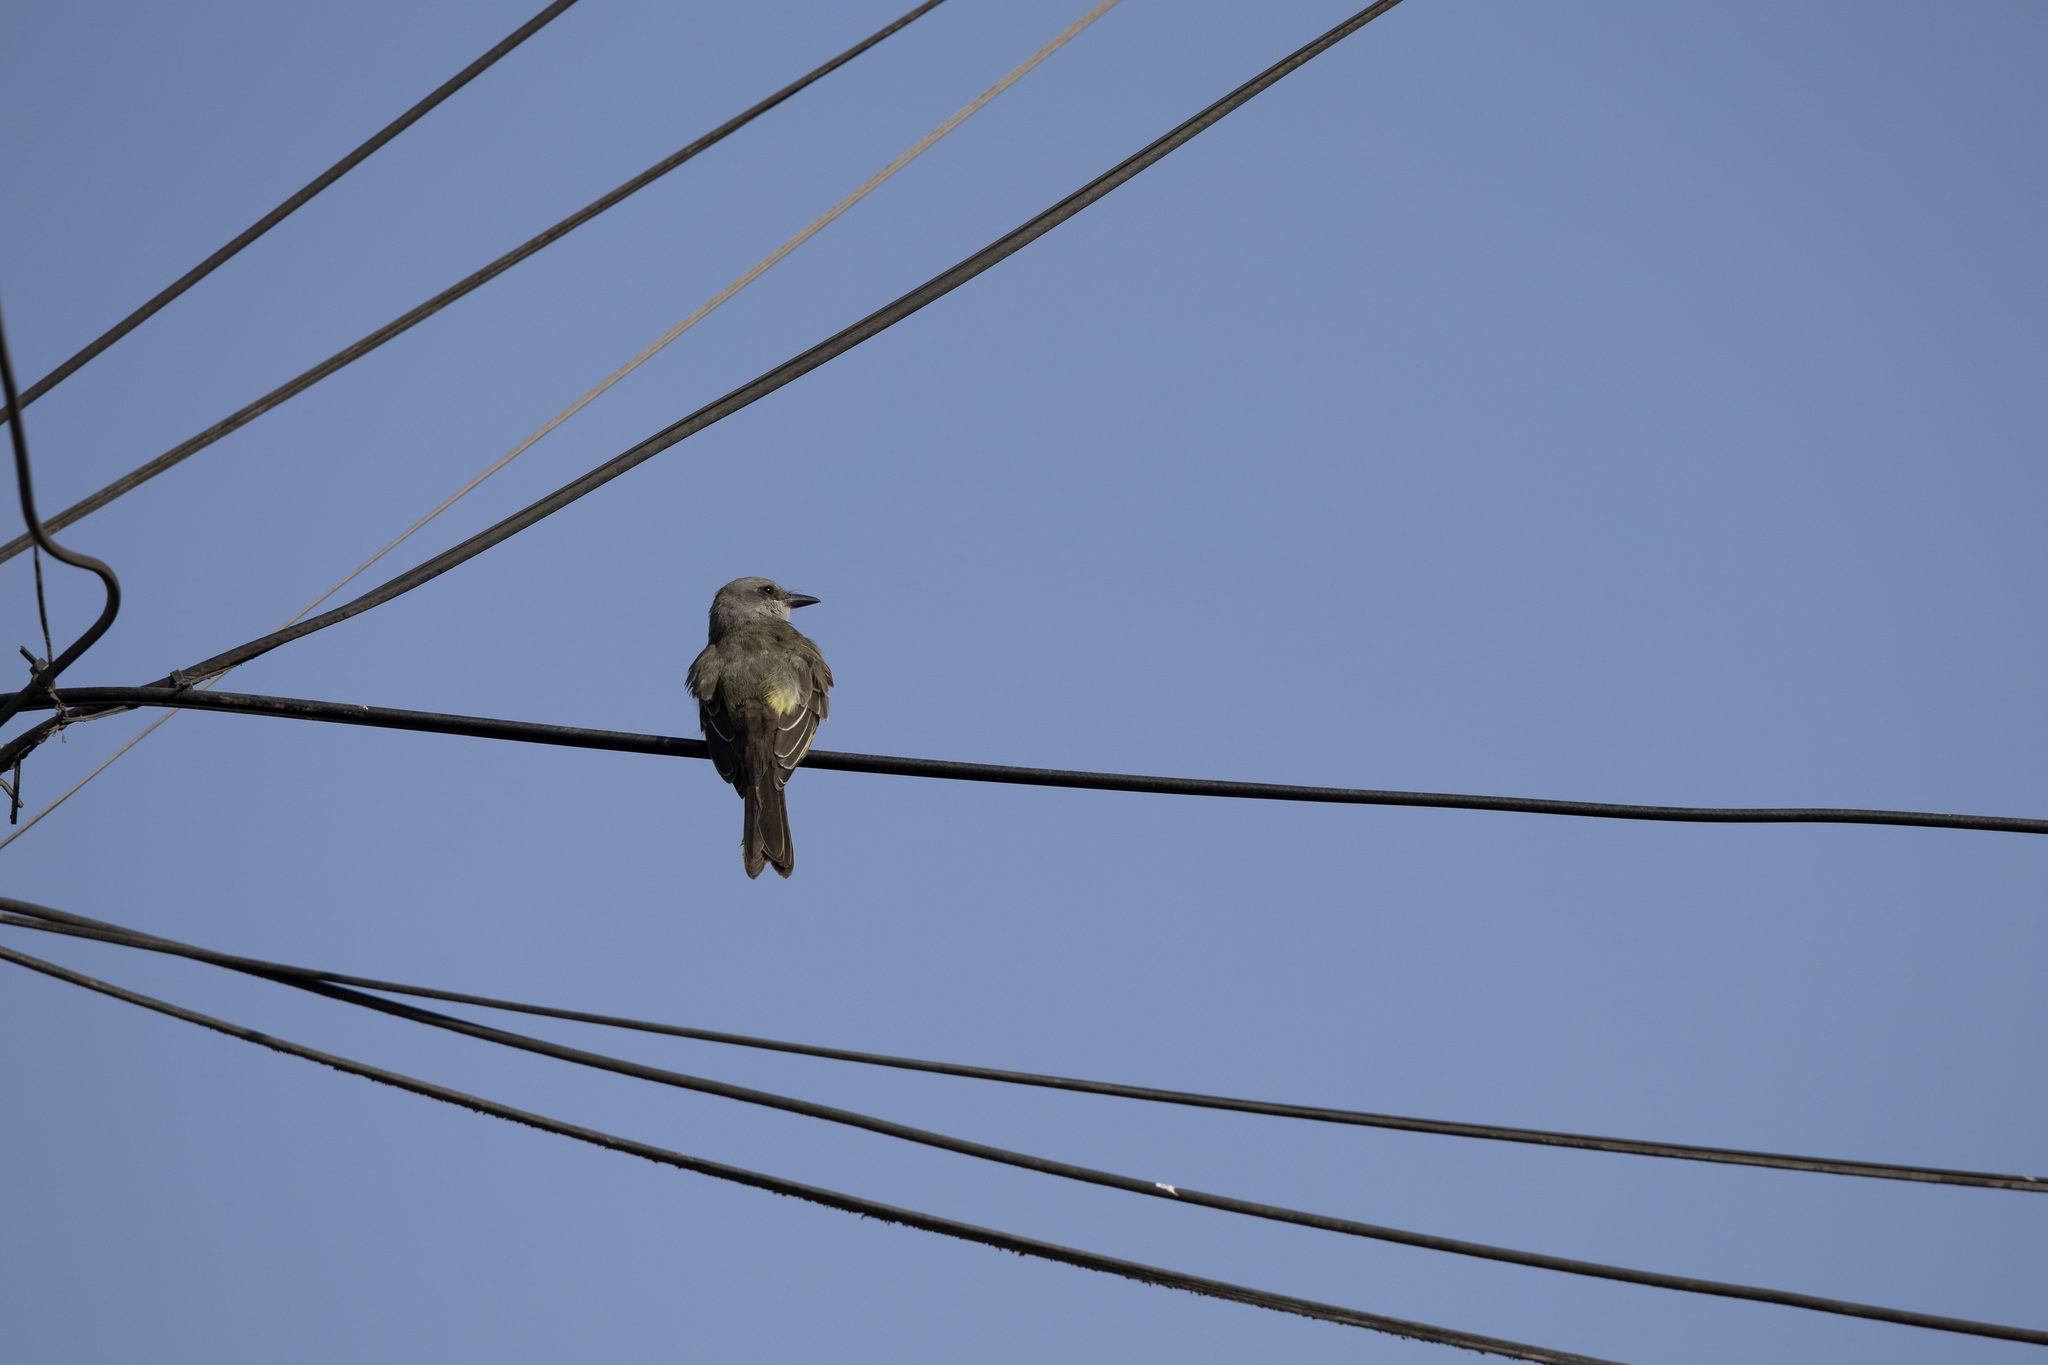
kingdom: Animalia
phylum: Chordata
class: Aves
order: Passeriformes
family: Tyrannidae
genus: Tyrannus
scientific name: Tyrannus melancholicus
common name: Tropical kingbird
